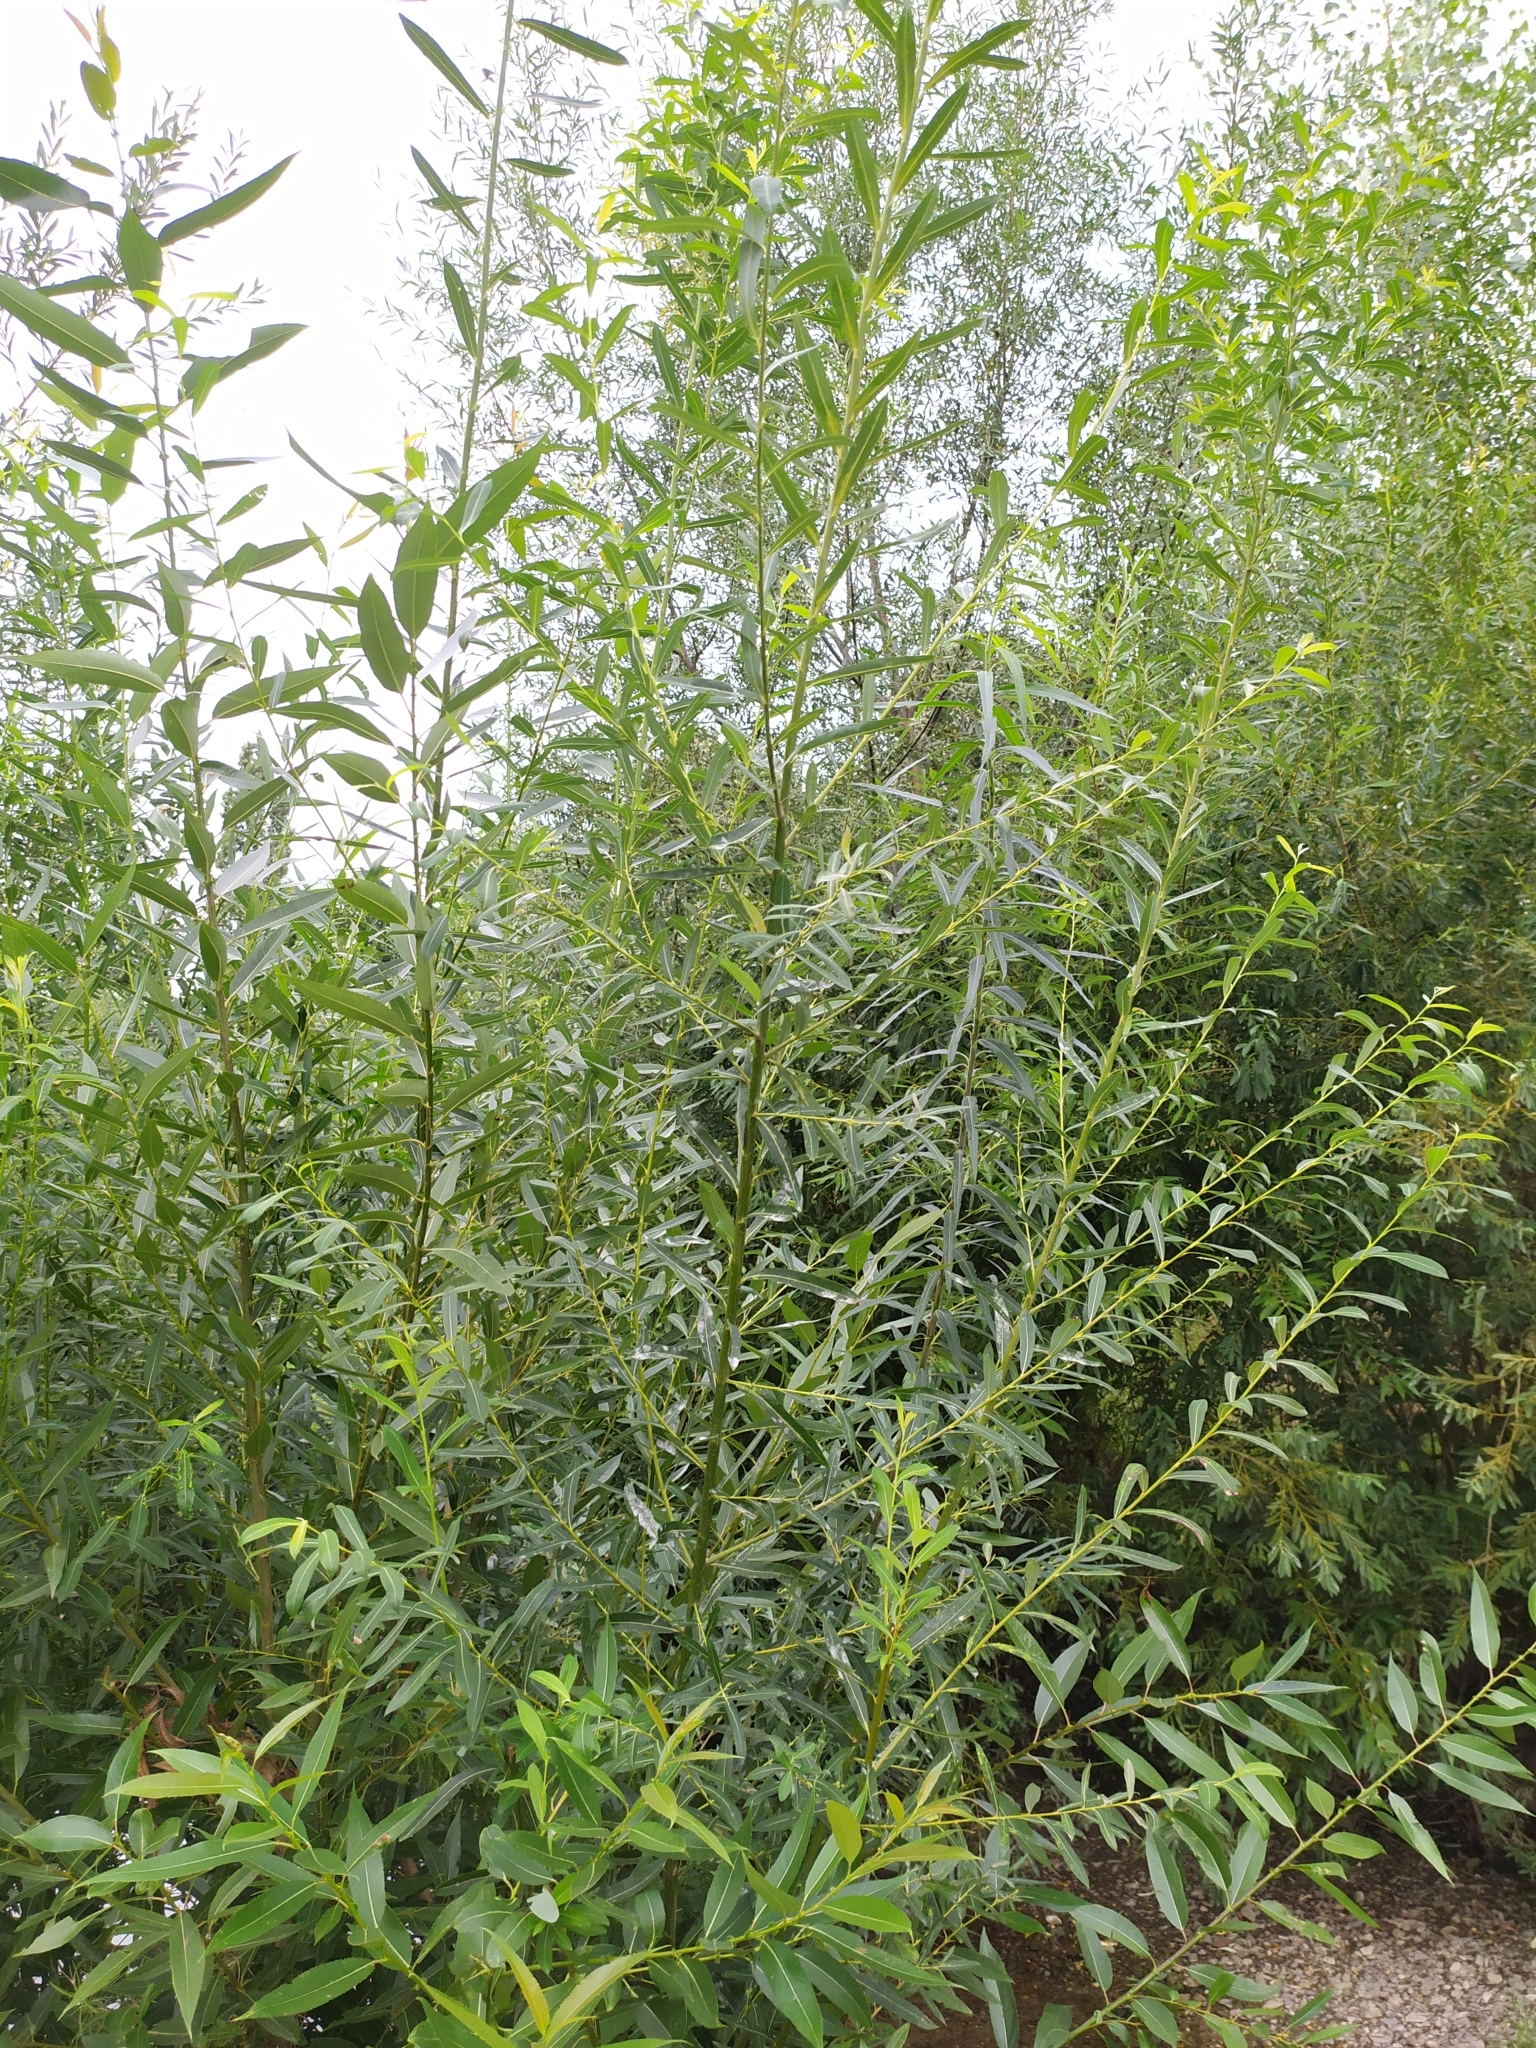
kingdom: Fungi
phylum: Ascomycota
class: Leotiomycetes
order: Helotiales
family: Erysiphaceae
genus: Erysiphe
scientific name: Erysiphe salicis
